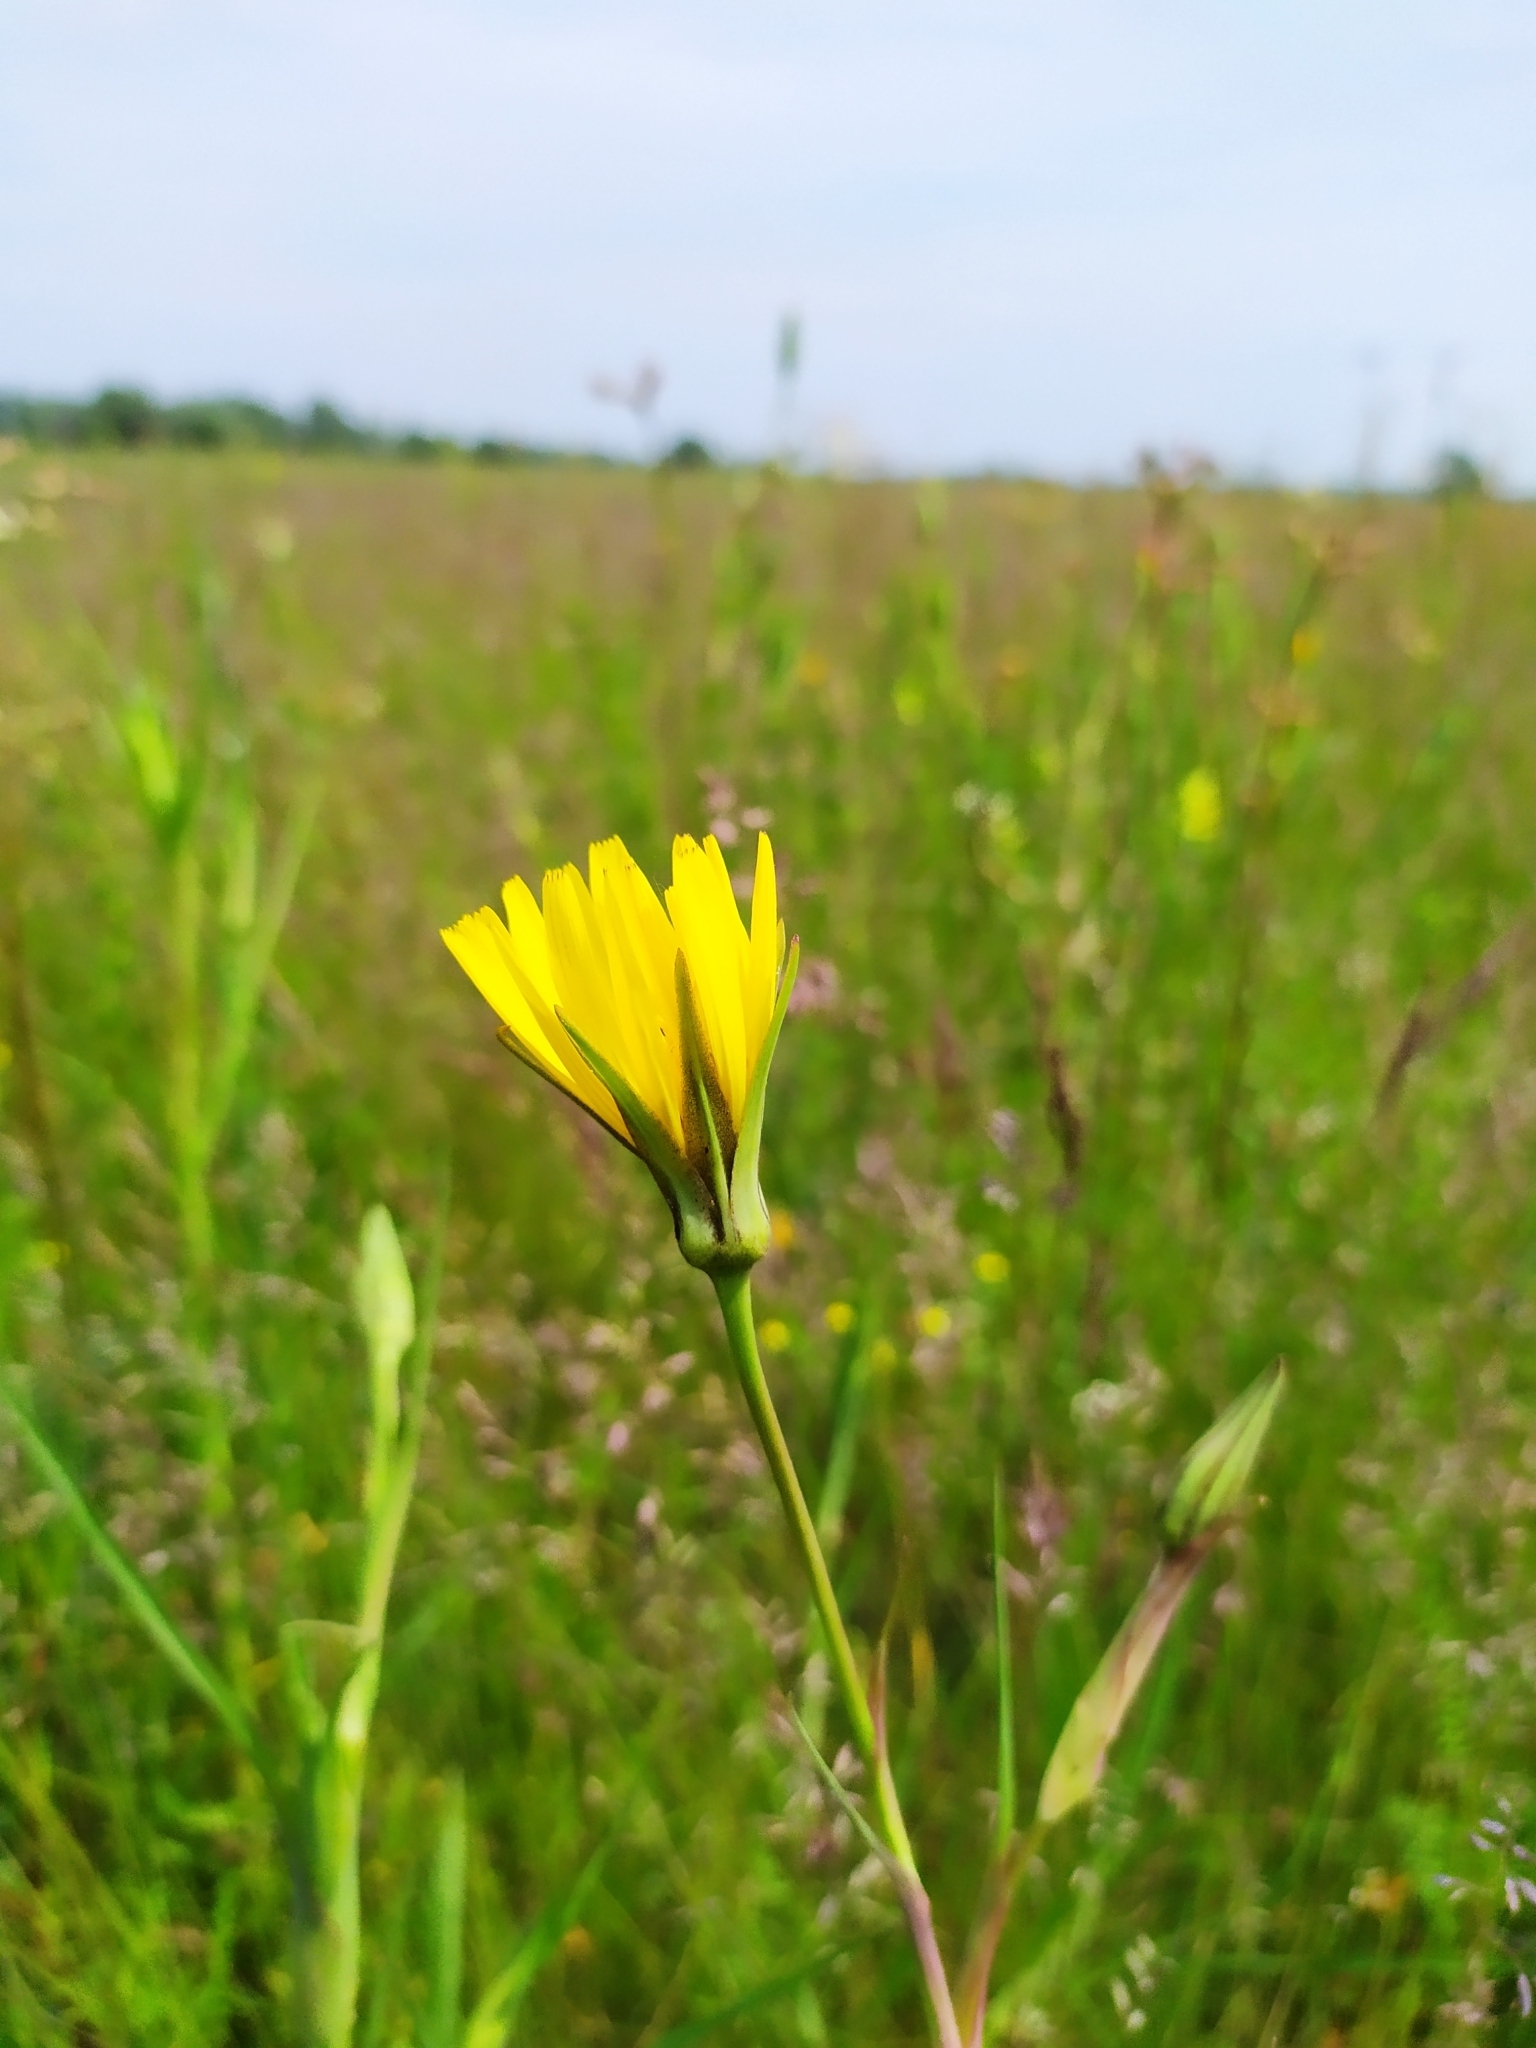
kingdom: Plantae
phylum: Tracheophyta
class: Magnoliopsida
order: Asterales
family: Asteraceae
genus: Tragopogon
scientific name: Tragopogon orientalis
